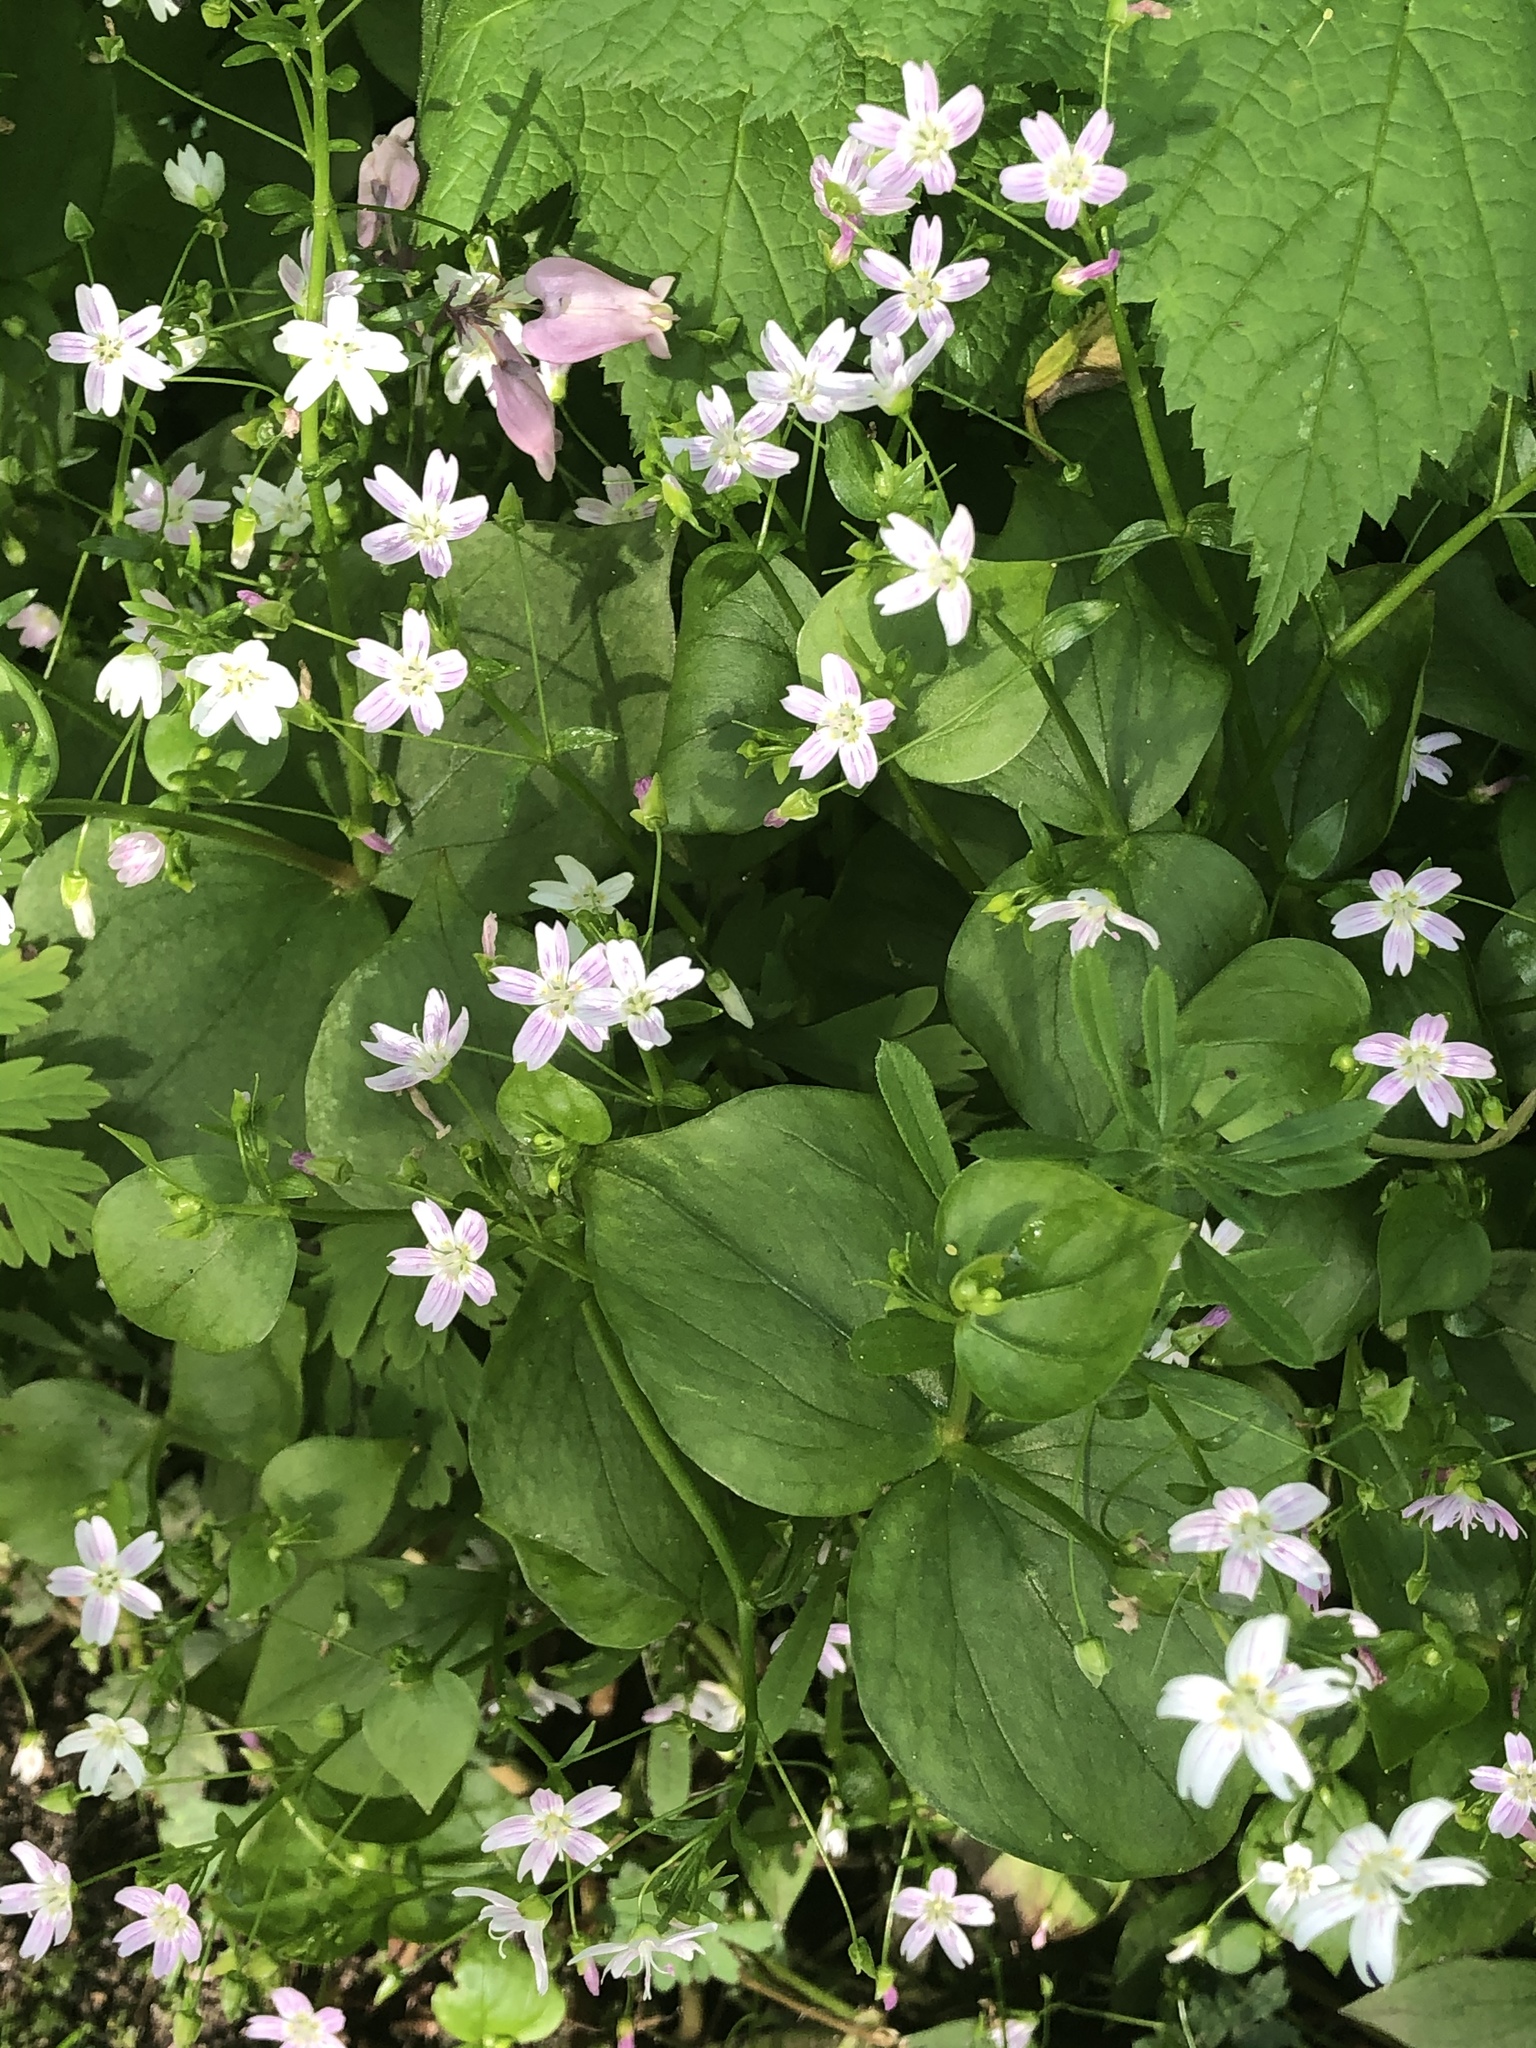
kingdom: Plantae
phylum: Tracheophyta
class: Magnoliopsida
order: Caryophyllales
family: Montiaceae
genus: Claytonia
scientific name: Claytonia sibirica
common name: Pink purslane
